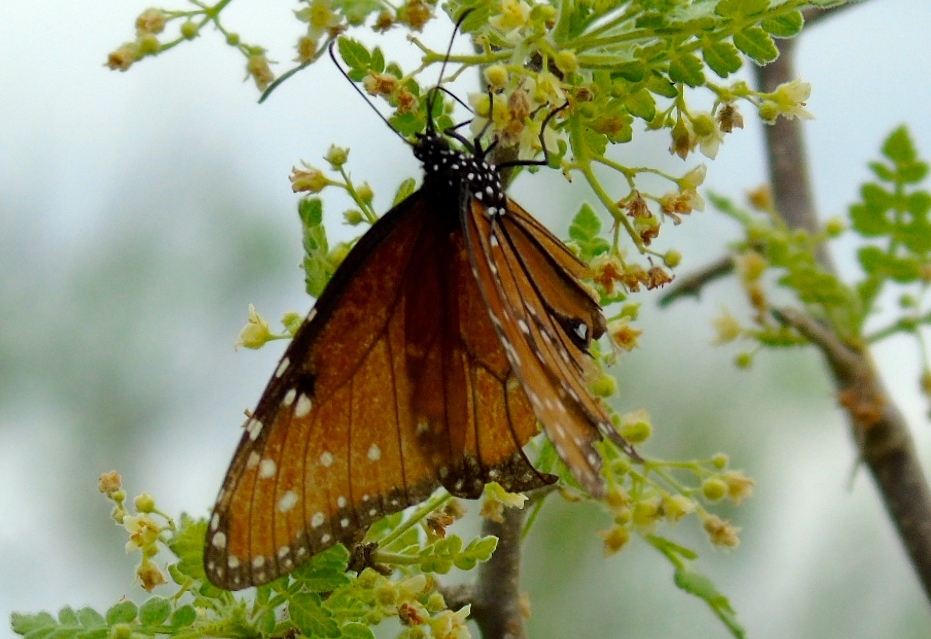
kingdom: Animalia
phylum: Arthropoda
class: Insecta
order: Lepidoptera
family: Nymphalidae
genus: Danaus
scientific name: Danaus gilippus
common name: Queen
